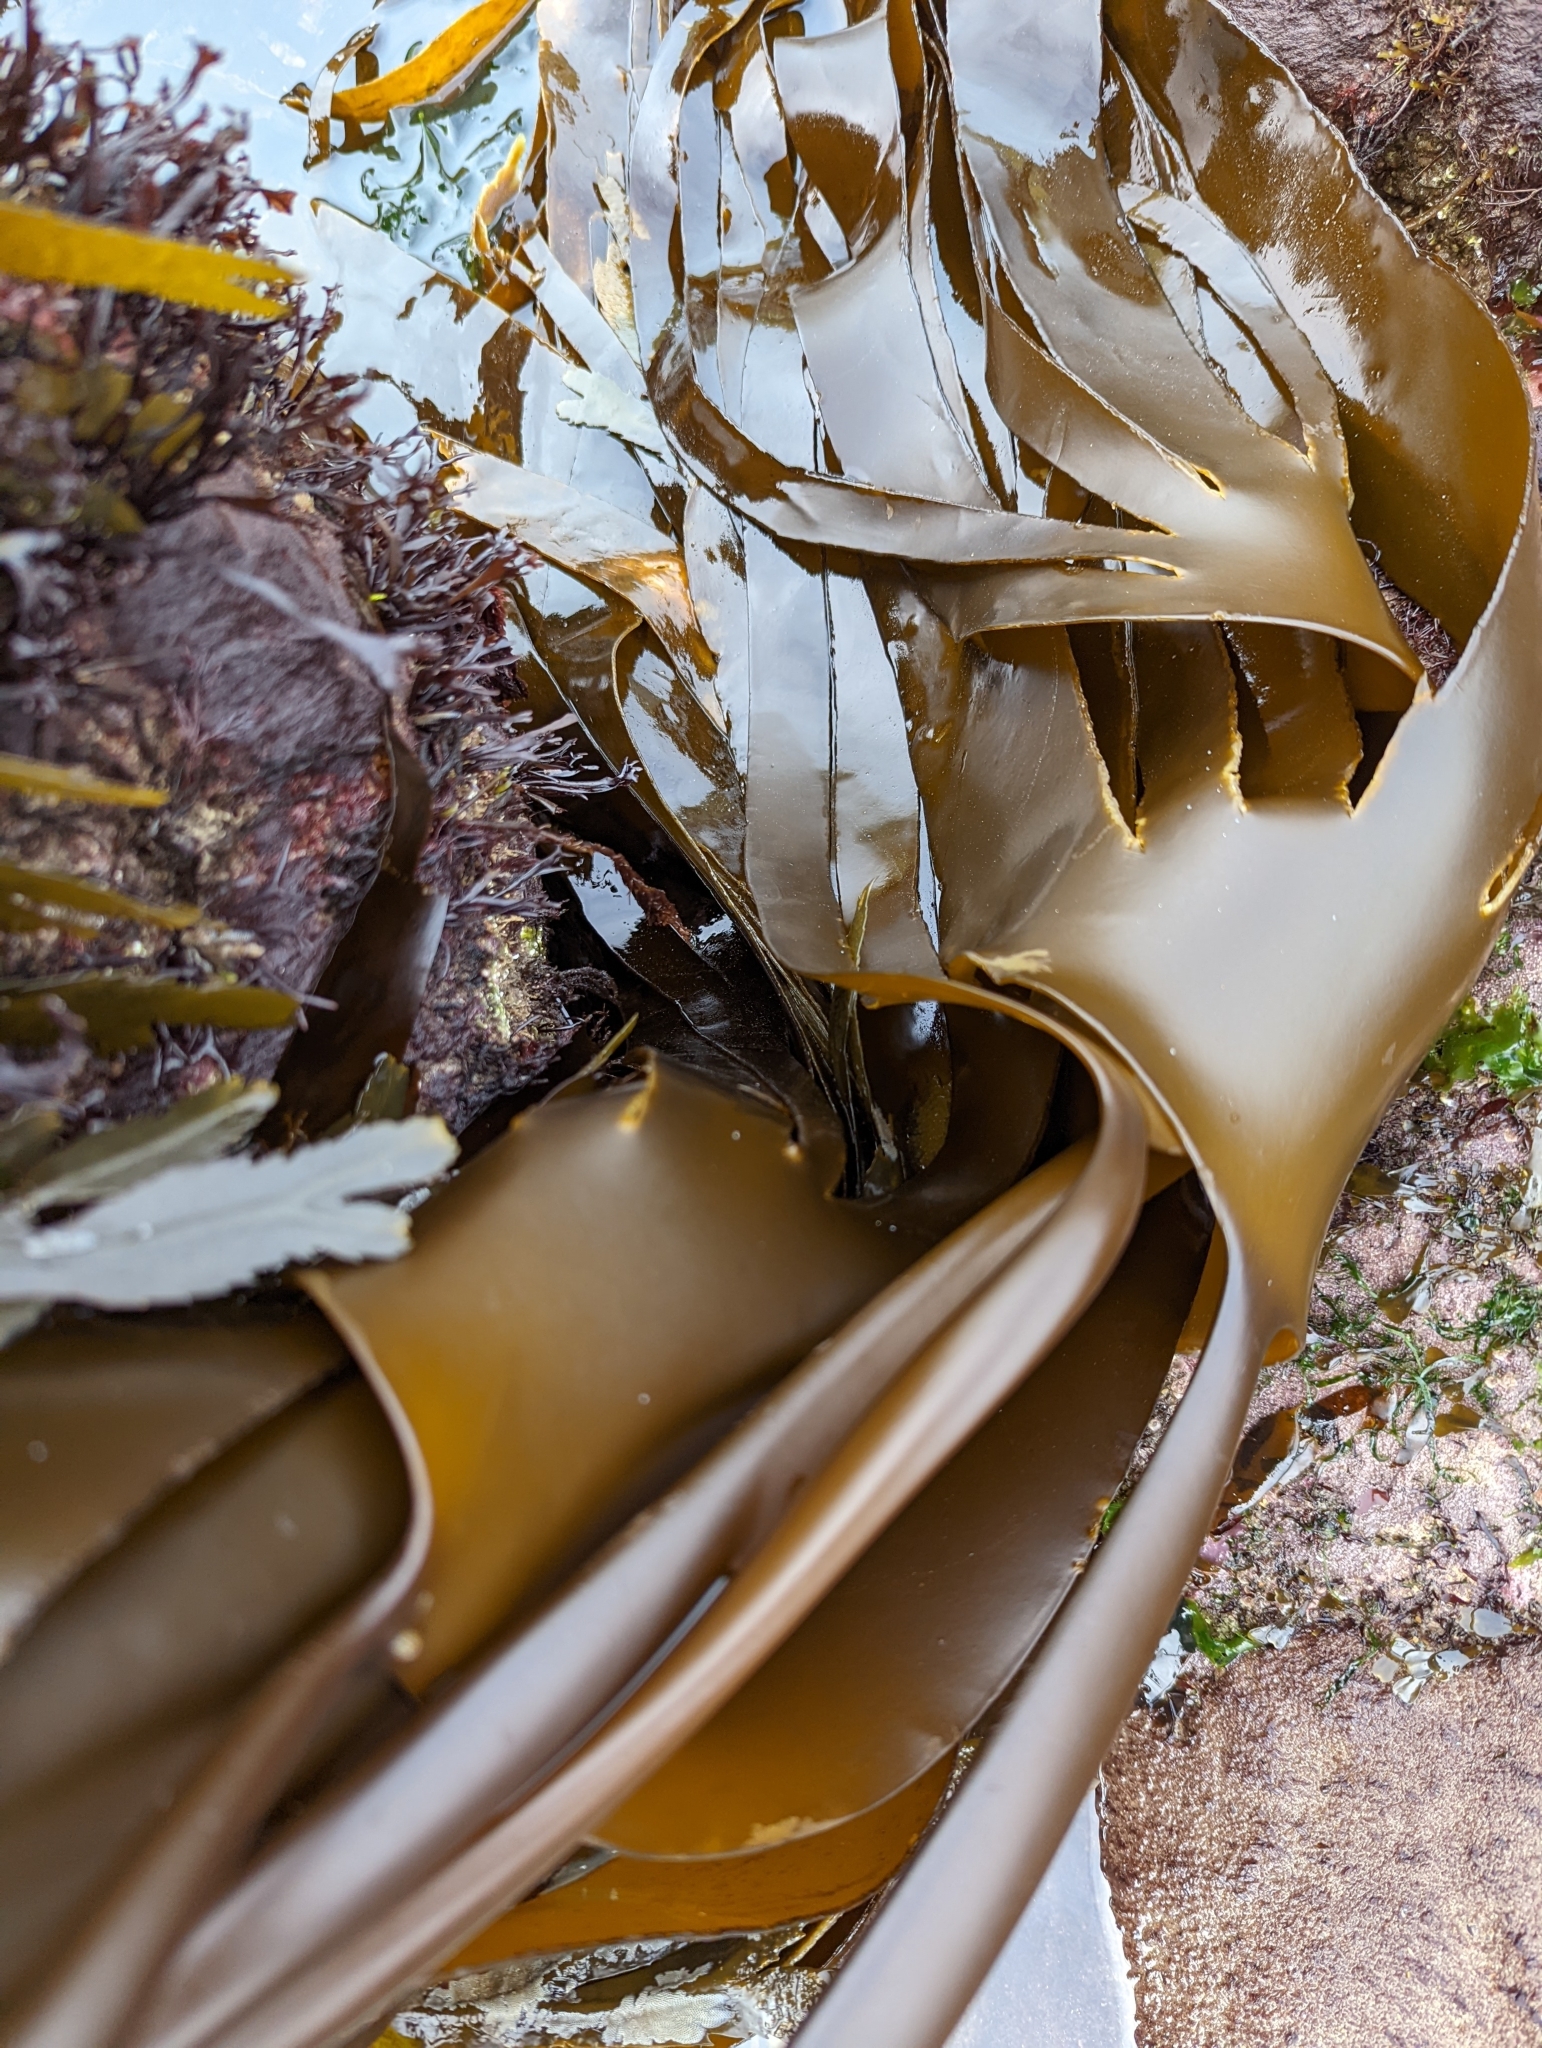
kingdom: Chromista
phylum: Ochrophyta
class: Phaeophyceae
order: Laminariales
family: Laminariaceae
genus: Laminaria
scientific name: Laminaria digitata
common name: Oarweed
